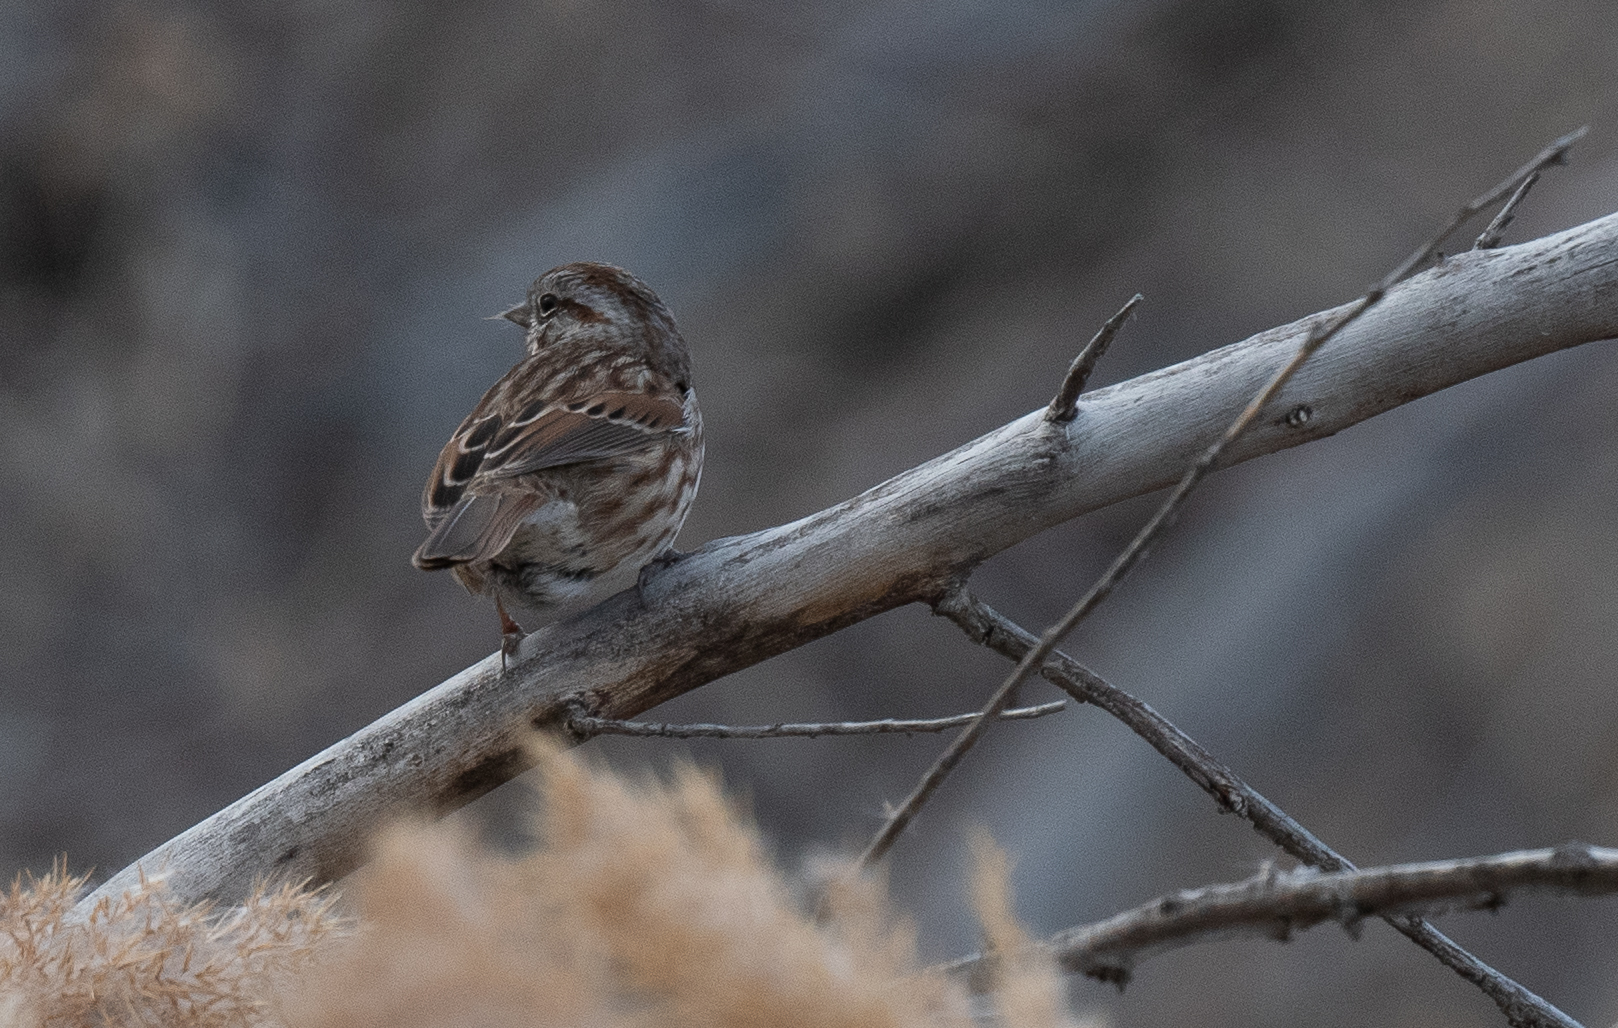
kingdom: Animalia
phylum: Chordata
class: Aves
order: Passeriformes
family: Passerellidae
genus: Melospiza
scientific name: Melospiza melodia
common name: Song sparrow
